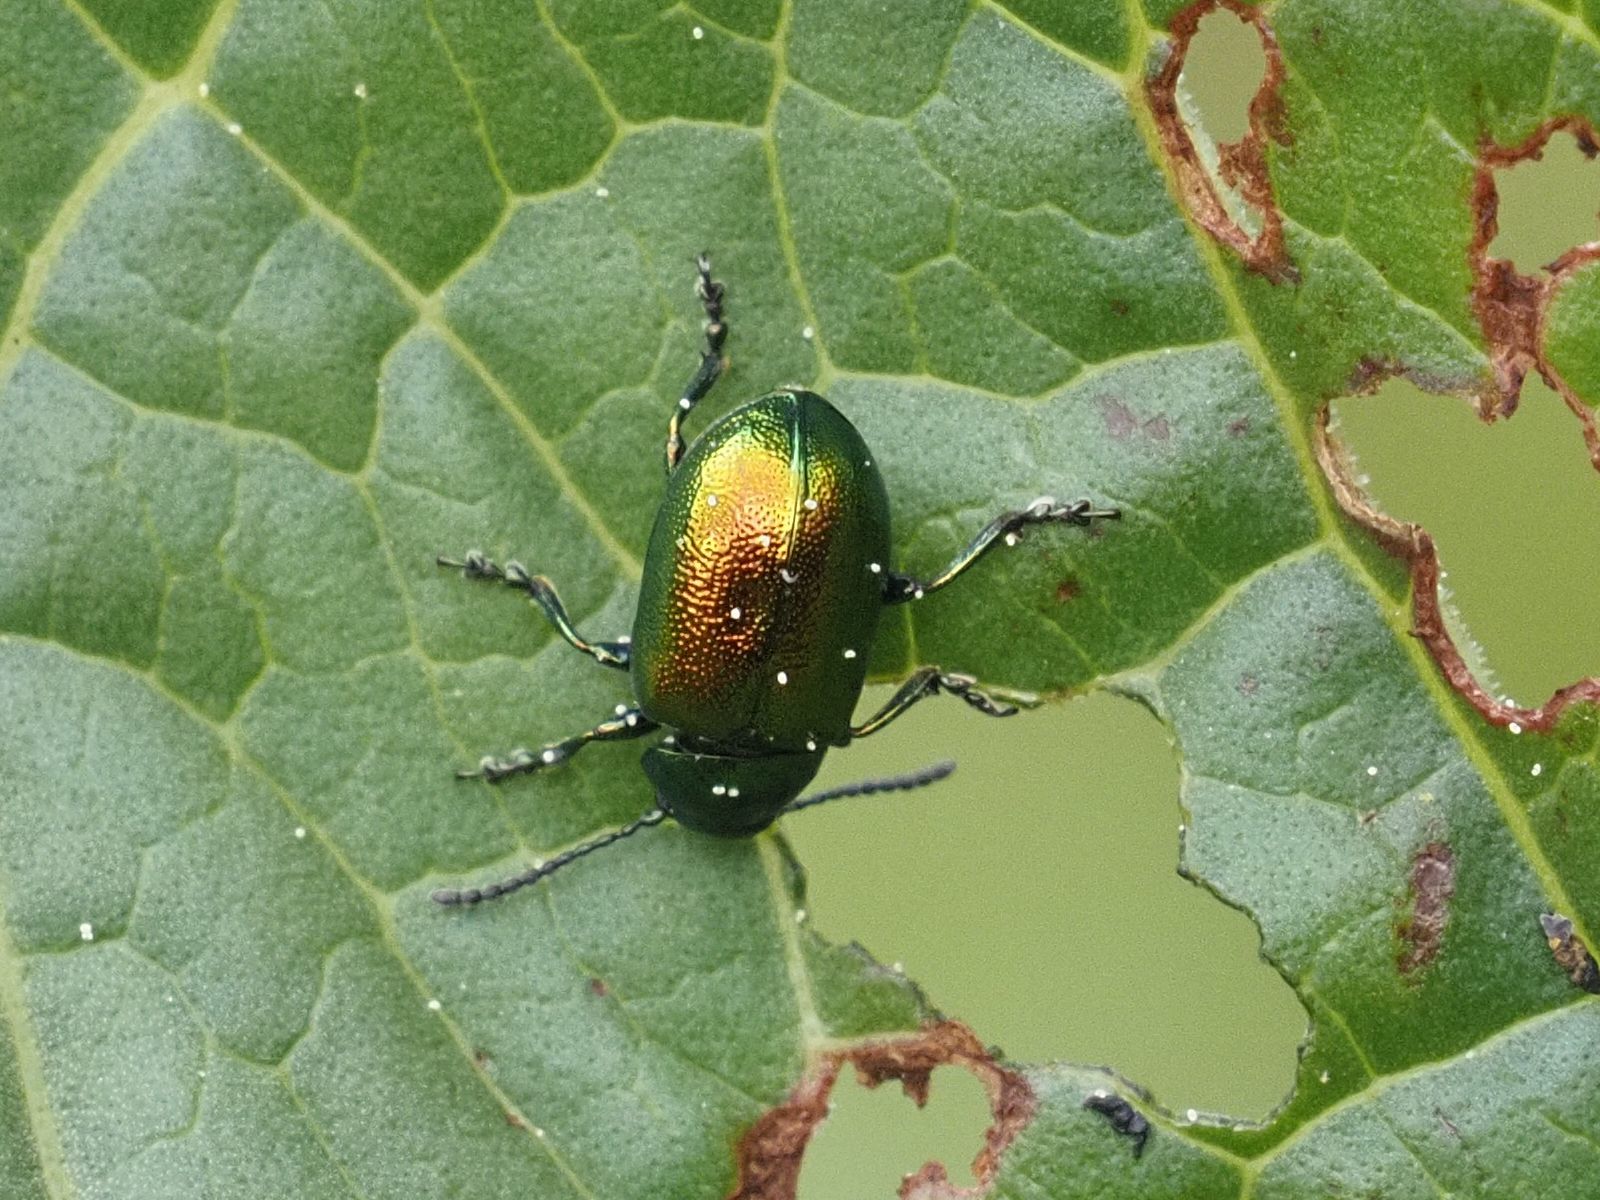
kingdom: Animalia
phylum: Arthropoda
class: Insecta
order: Coleoptera
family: Chrysomelidae
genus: Gastrophysa
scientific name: Gastrophysa viridula
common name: Green dock beetle
